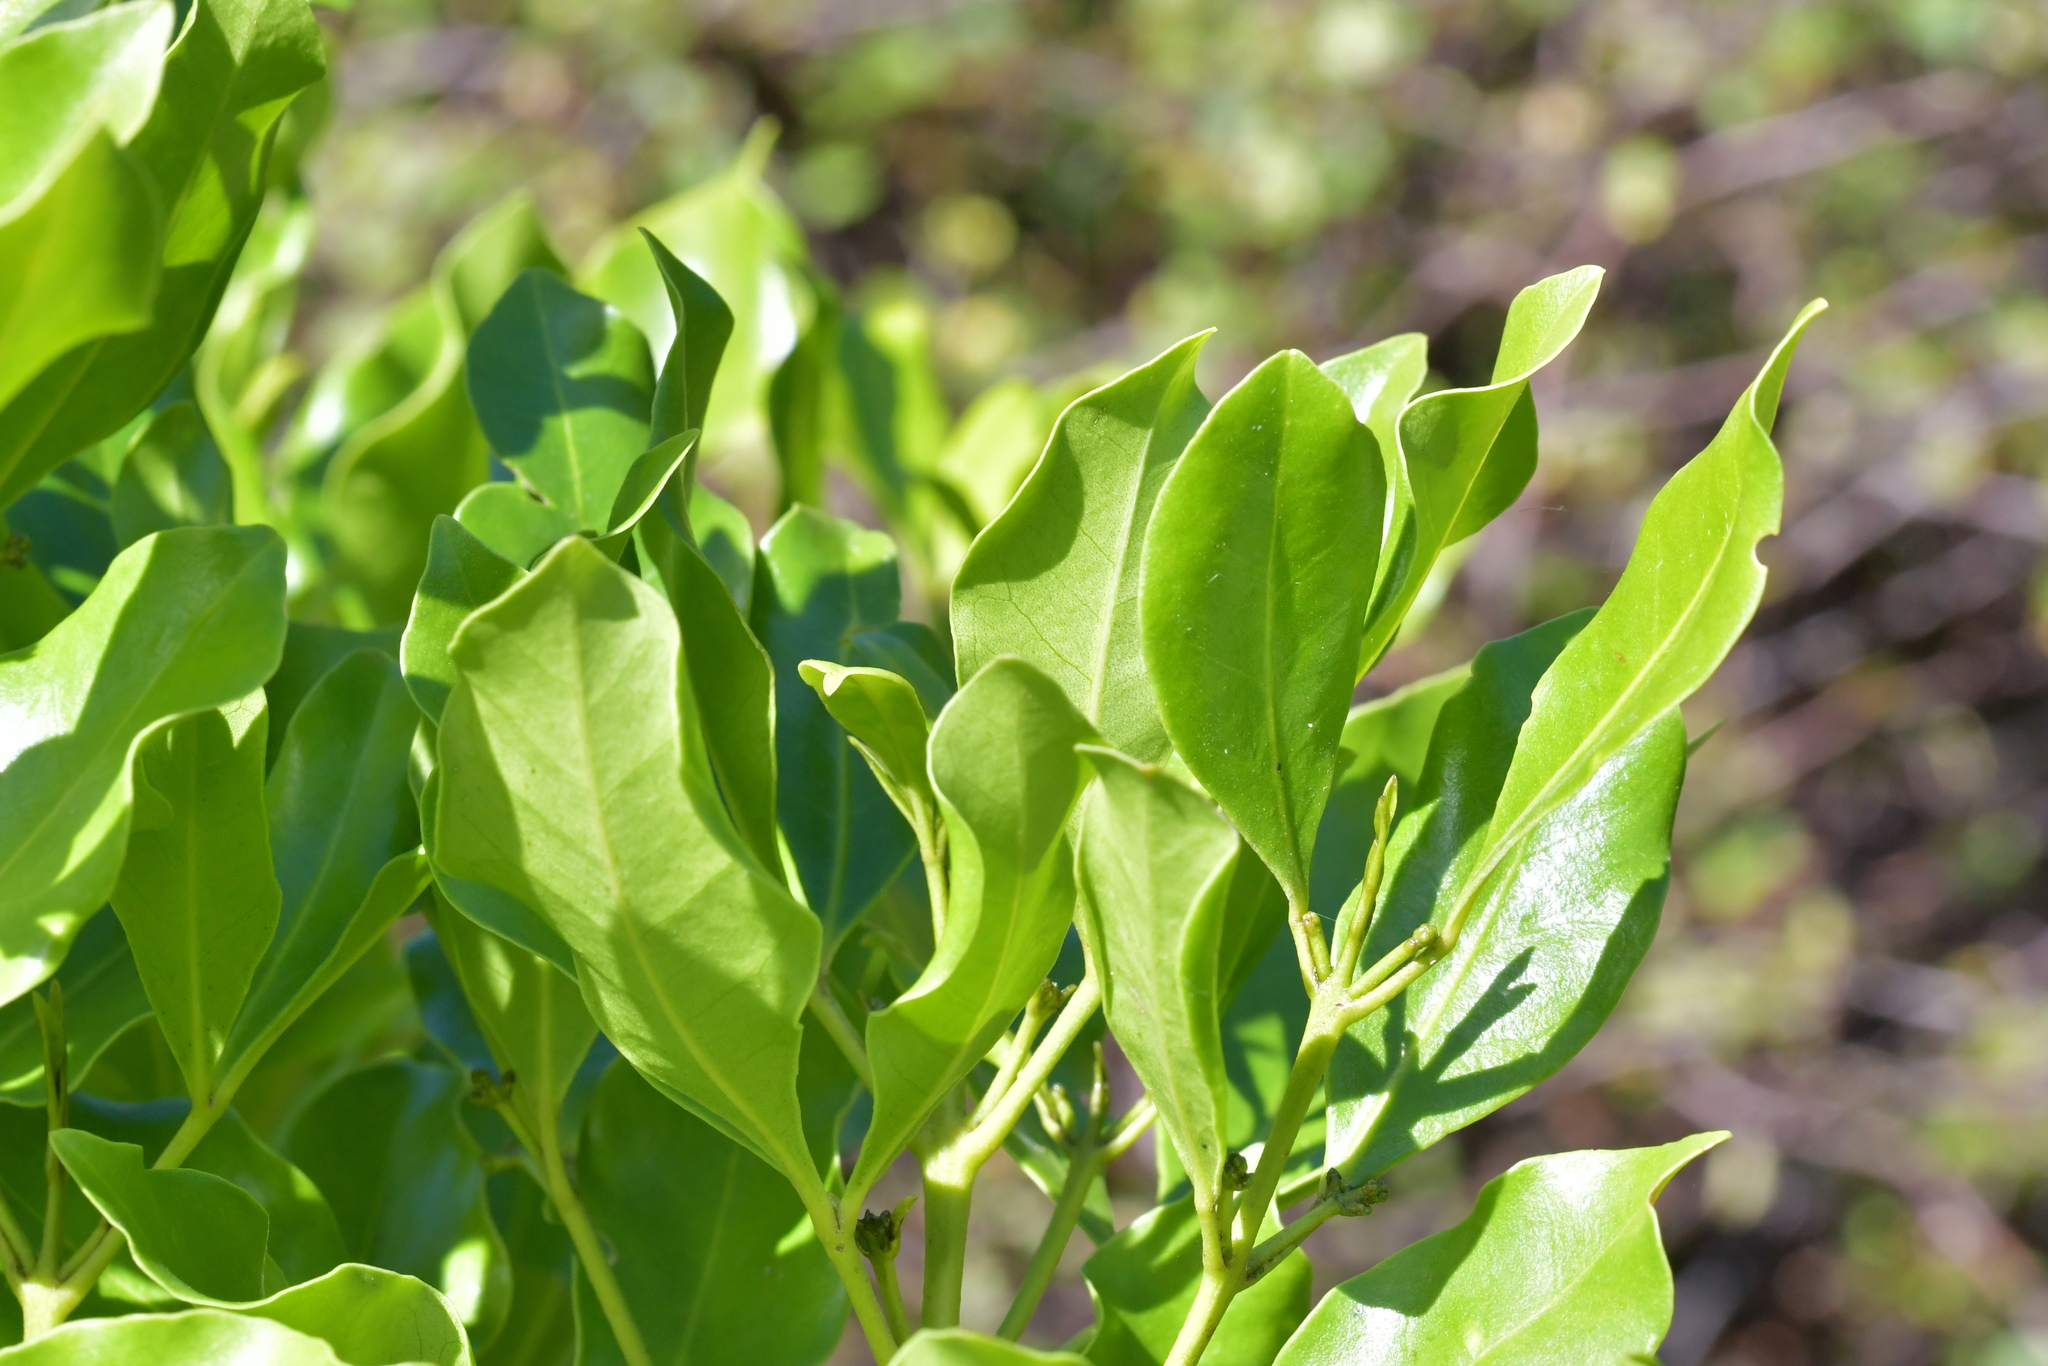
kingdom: Plantae
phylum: Tracheophyta
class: Magnoliopsida
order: Sapindales
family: Rutaceae
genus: Melicope
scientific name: Melicope ternata
